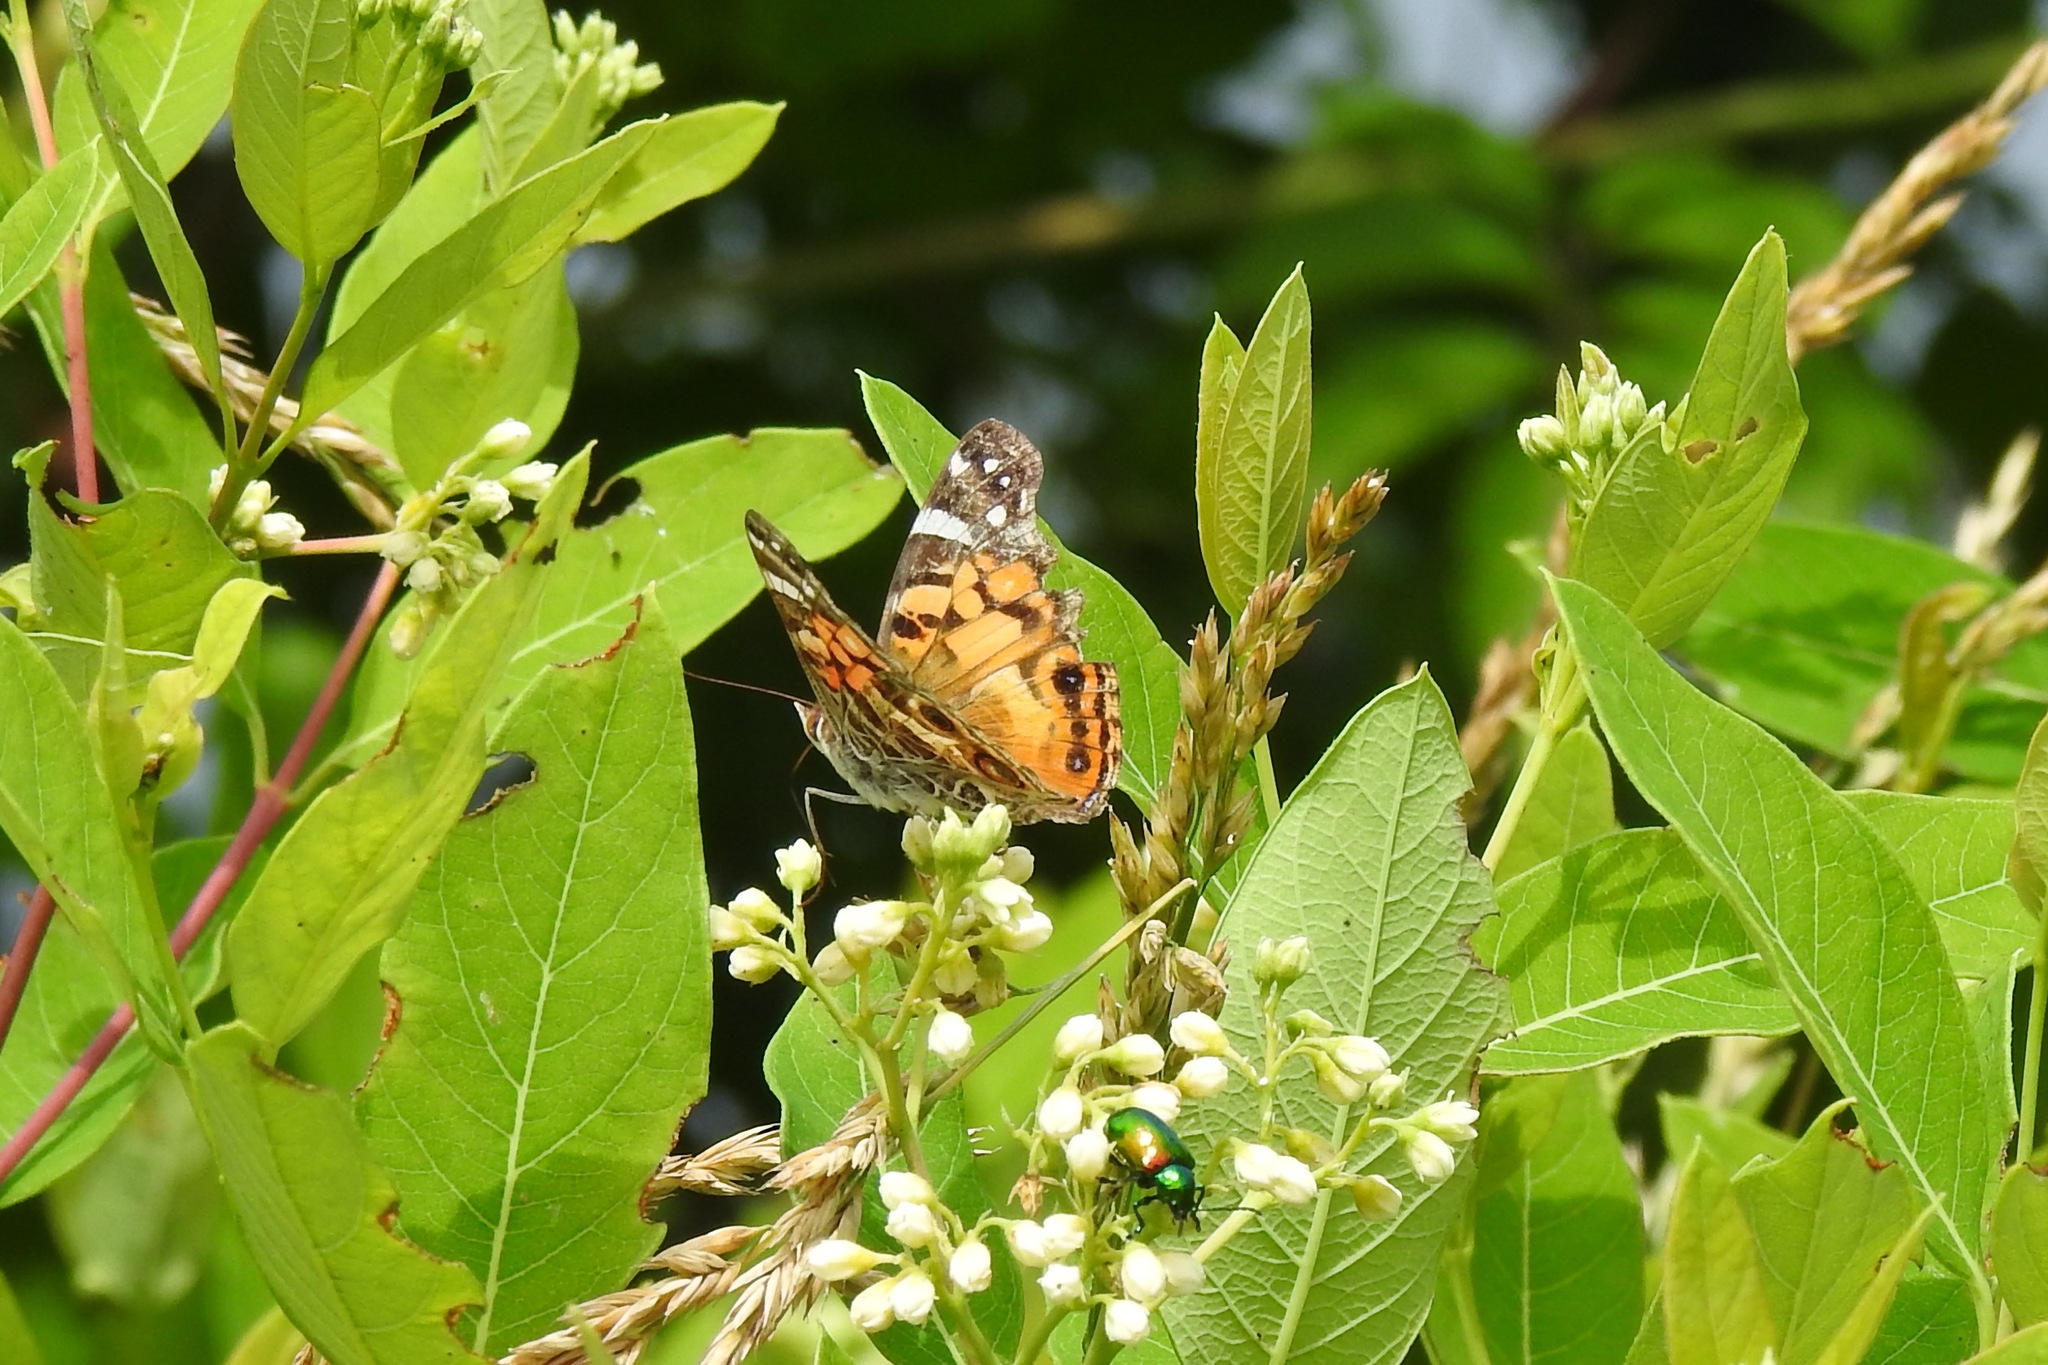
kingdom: Animalia
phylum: Arthropoda
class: Insecta
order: Lepidoptera
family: Nymphalidae
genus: Vanessa
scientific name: Vanessa virginiensis
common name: American lady
